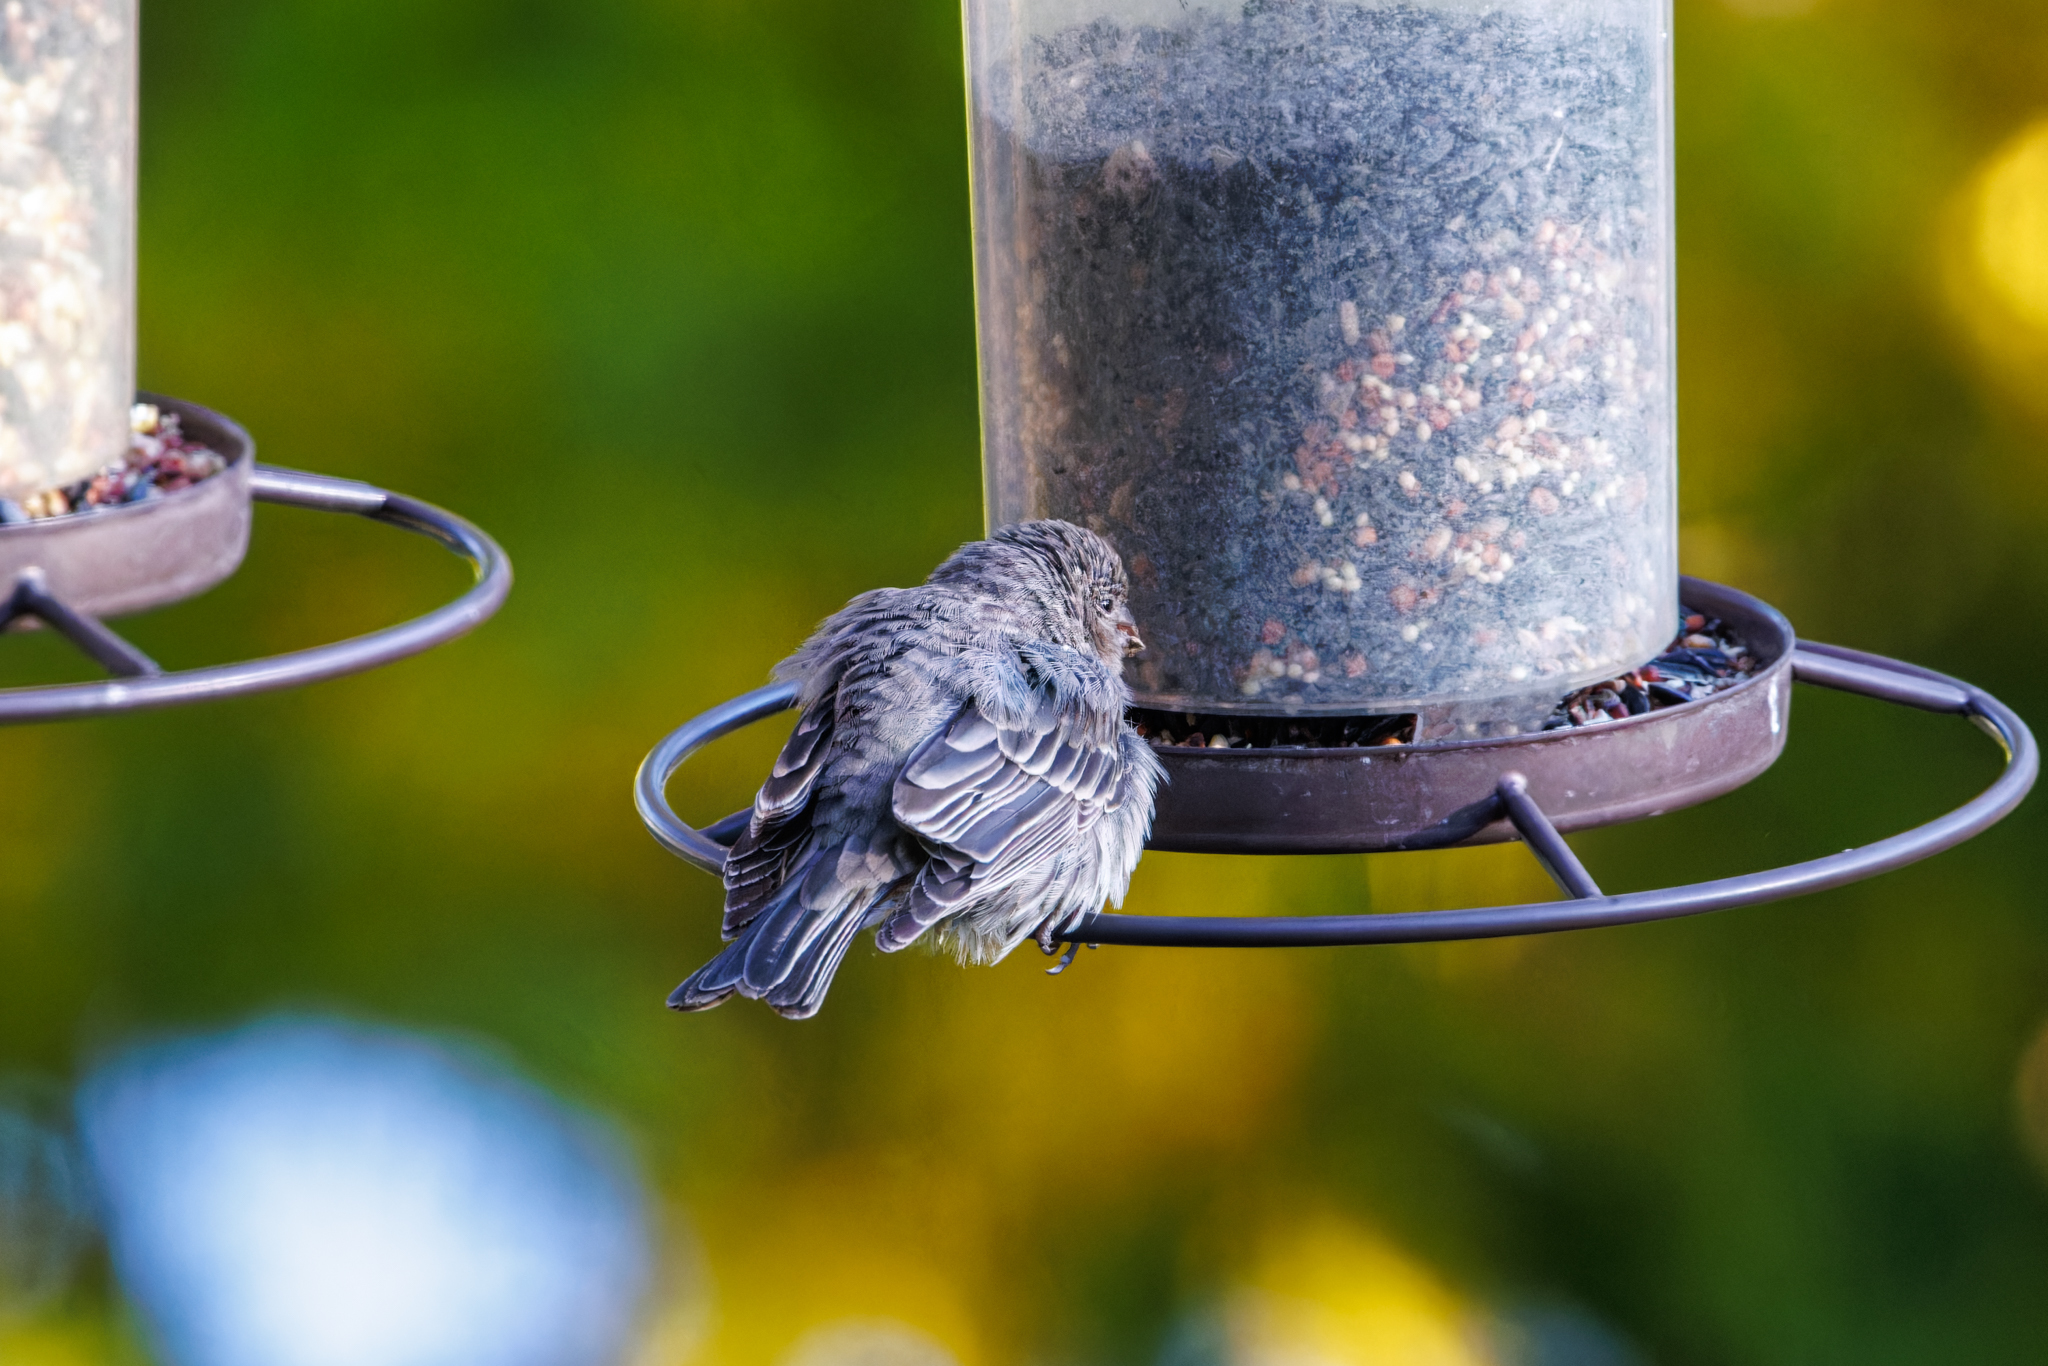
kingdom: Animalia
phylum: Chordata
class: Aves
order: Passeriformes
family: Fringillidae
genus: Haemorhous
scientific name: Haemorhous mexicanus
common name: House finch
